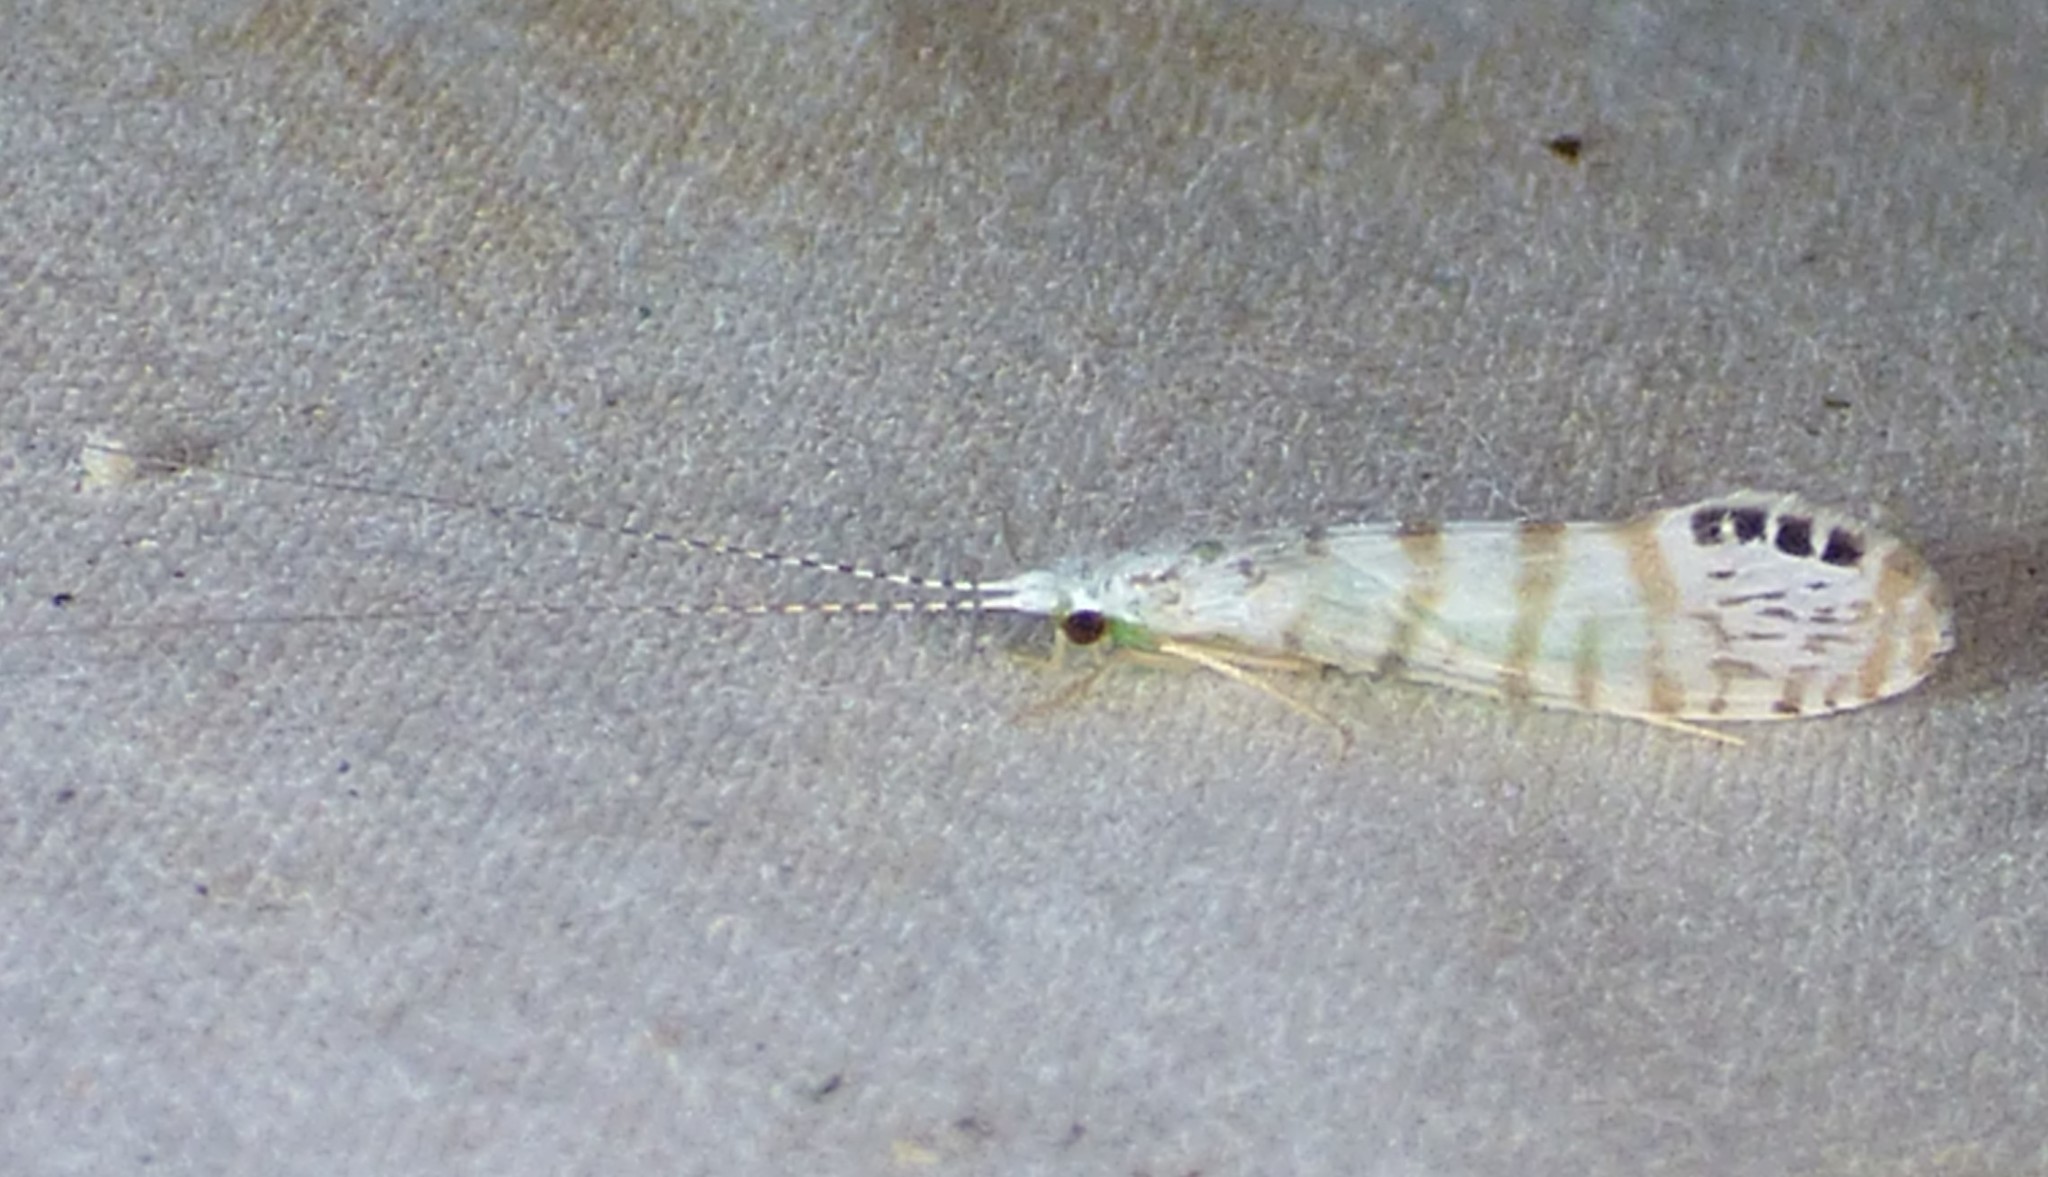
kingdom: Animalia
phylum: Arthropoda
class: Insecta
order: Trichoptera
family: Leptoceridae
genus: Nectopsyche
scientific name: Nectopsyche exquisita
